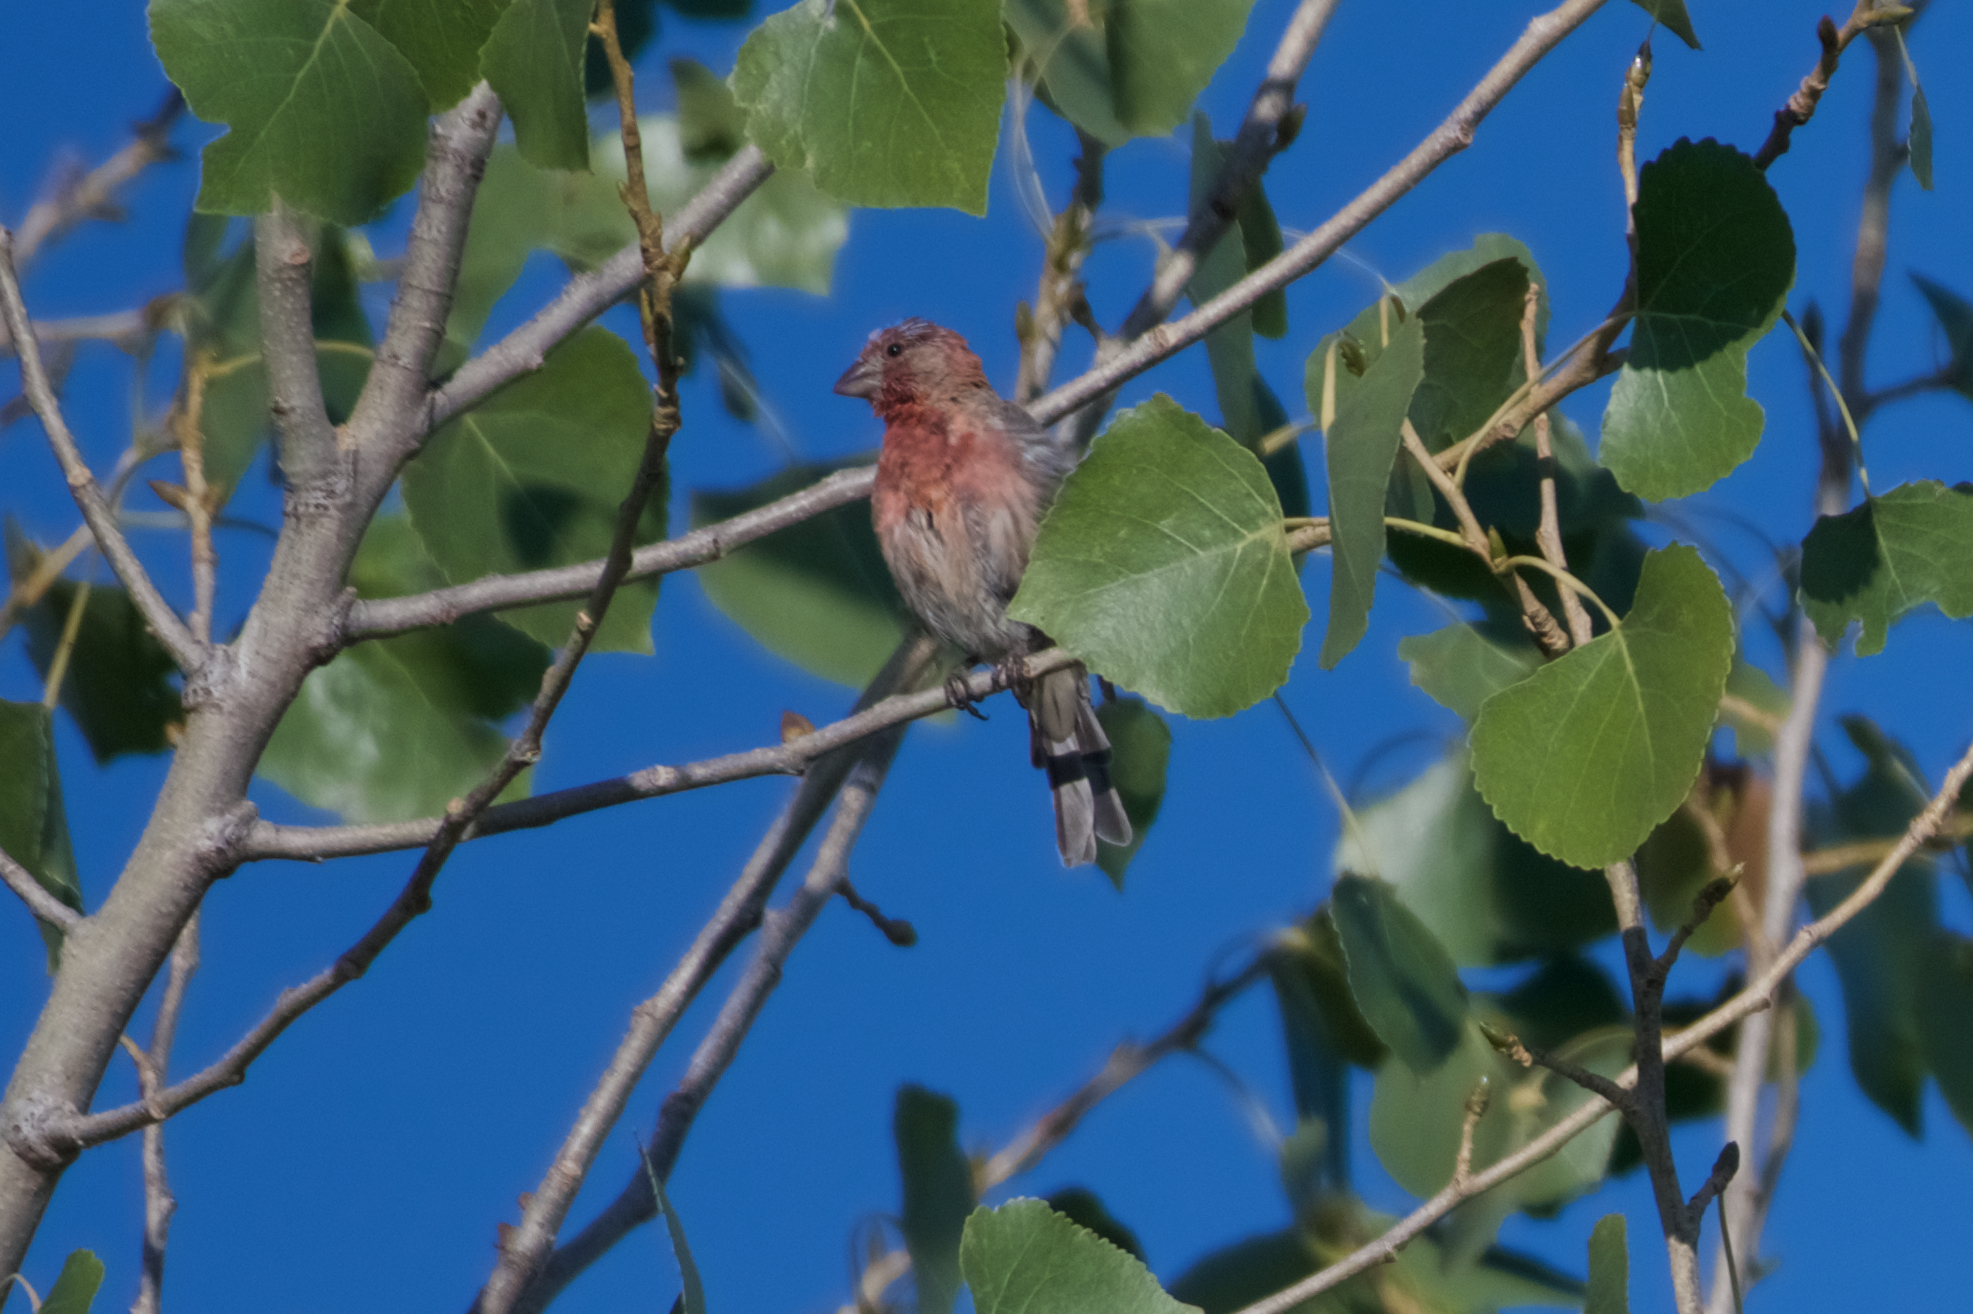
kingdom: Animalia
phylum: Chordata
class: Aves
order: Passeriformes
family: Fringillidae
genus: Haemorhous
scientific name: Haemorhous mexicanus
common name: House finch
